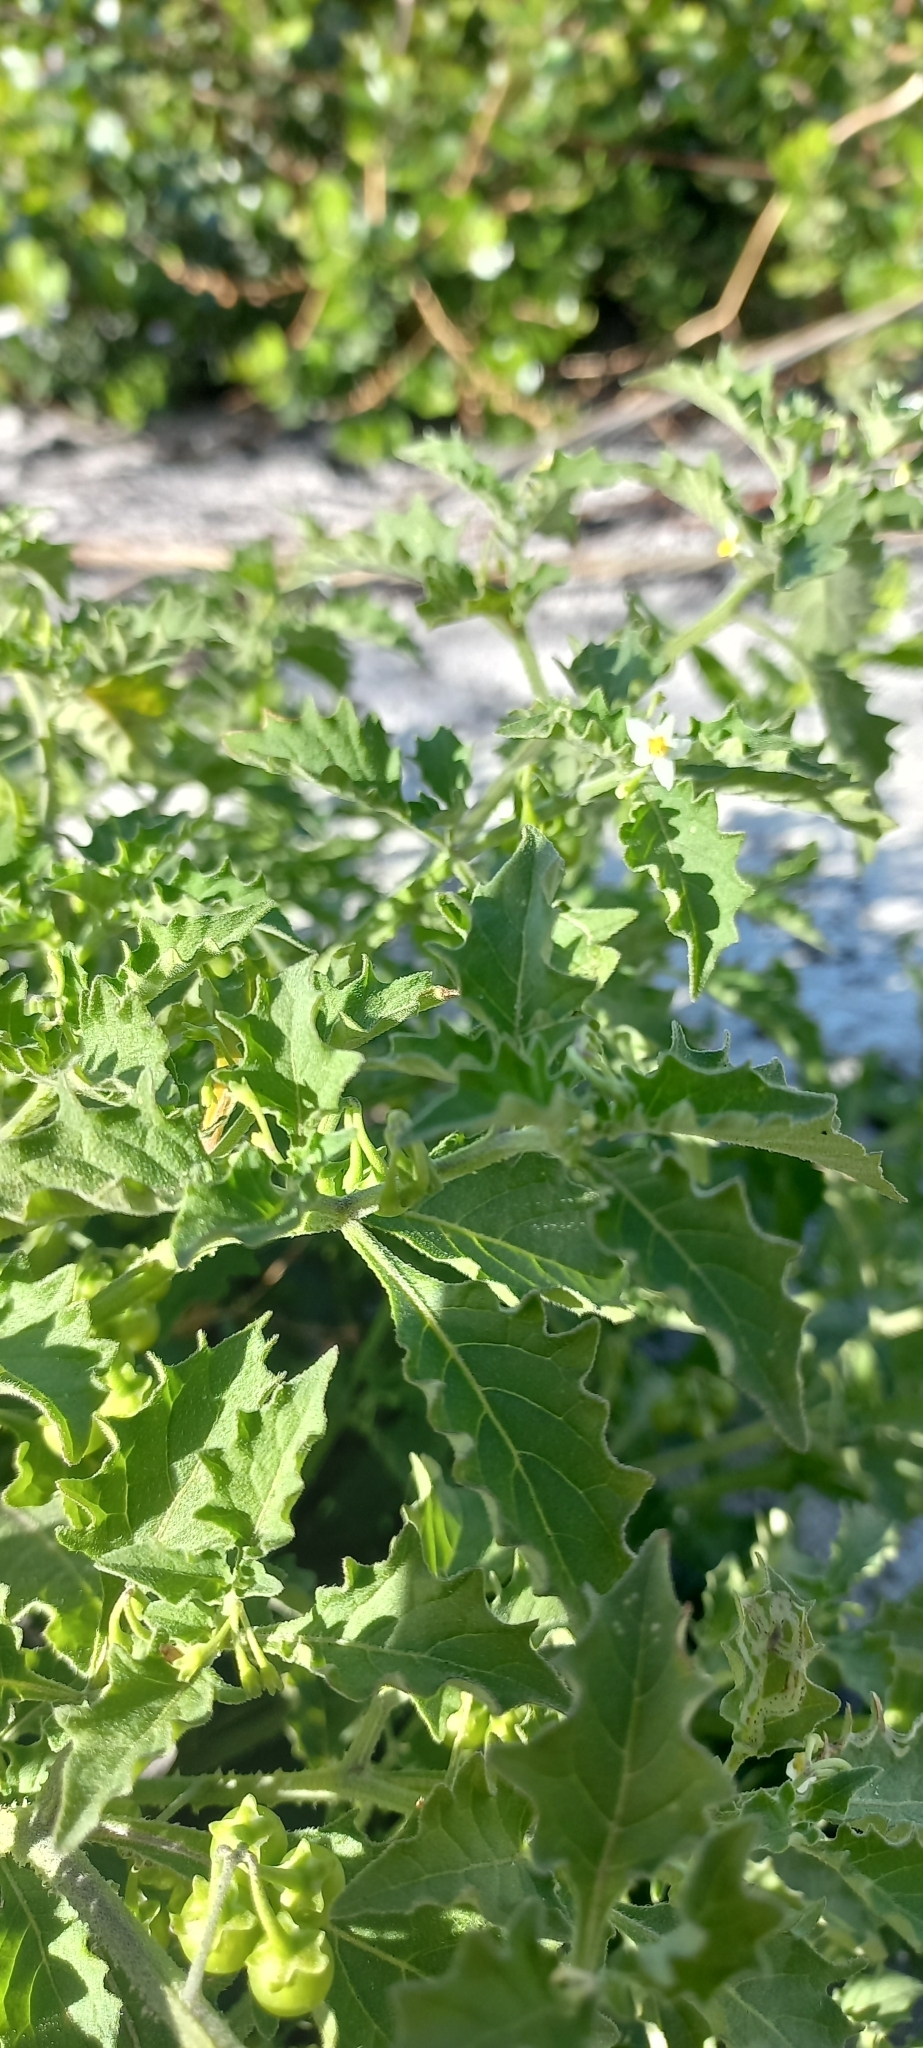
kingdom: Plantae
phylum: Tracheophyta
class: Magnoliopsida
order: Solanales
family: Solanaceae
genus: Solanum
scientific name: Solanum retroflexum
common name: Wonderberry
